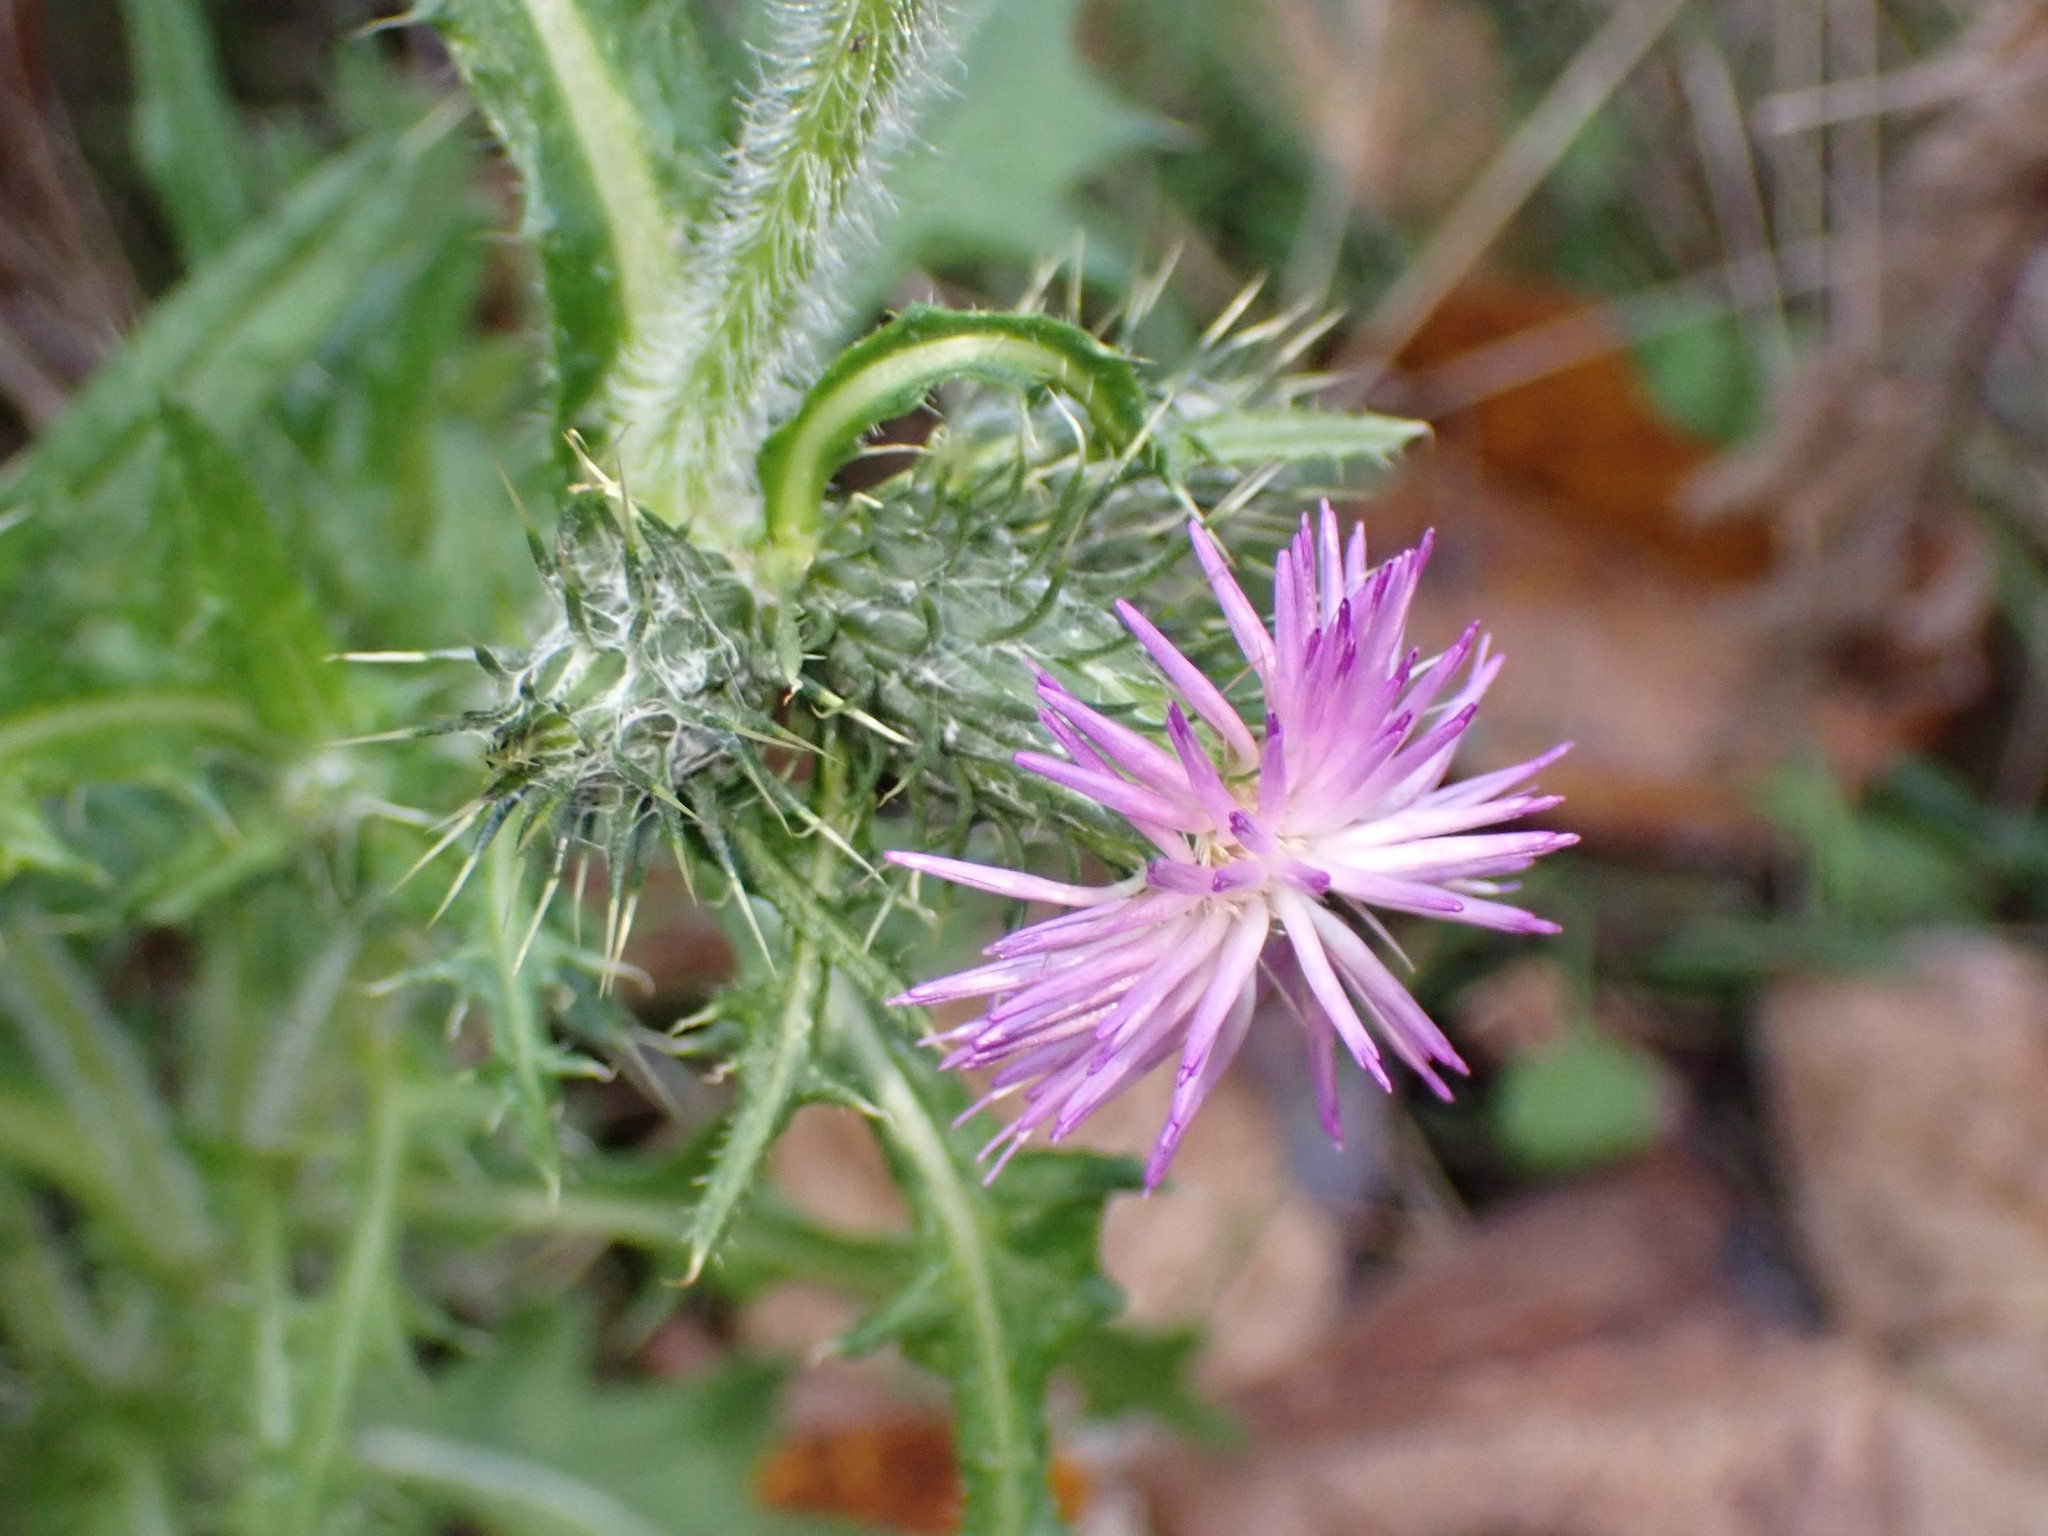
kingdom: Plantae
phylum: Tracheophyta
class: Magnoliopsida
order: Asterales
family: Asteraceae
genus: Cirsium
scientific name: Cirsium vulgare
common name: Bull thistle
